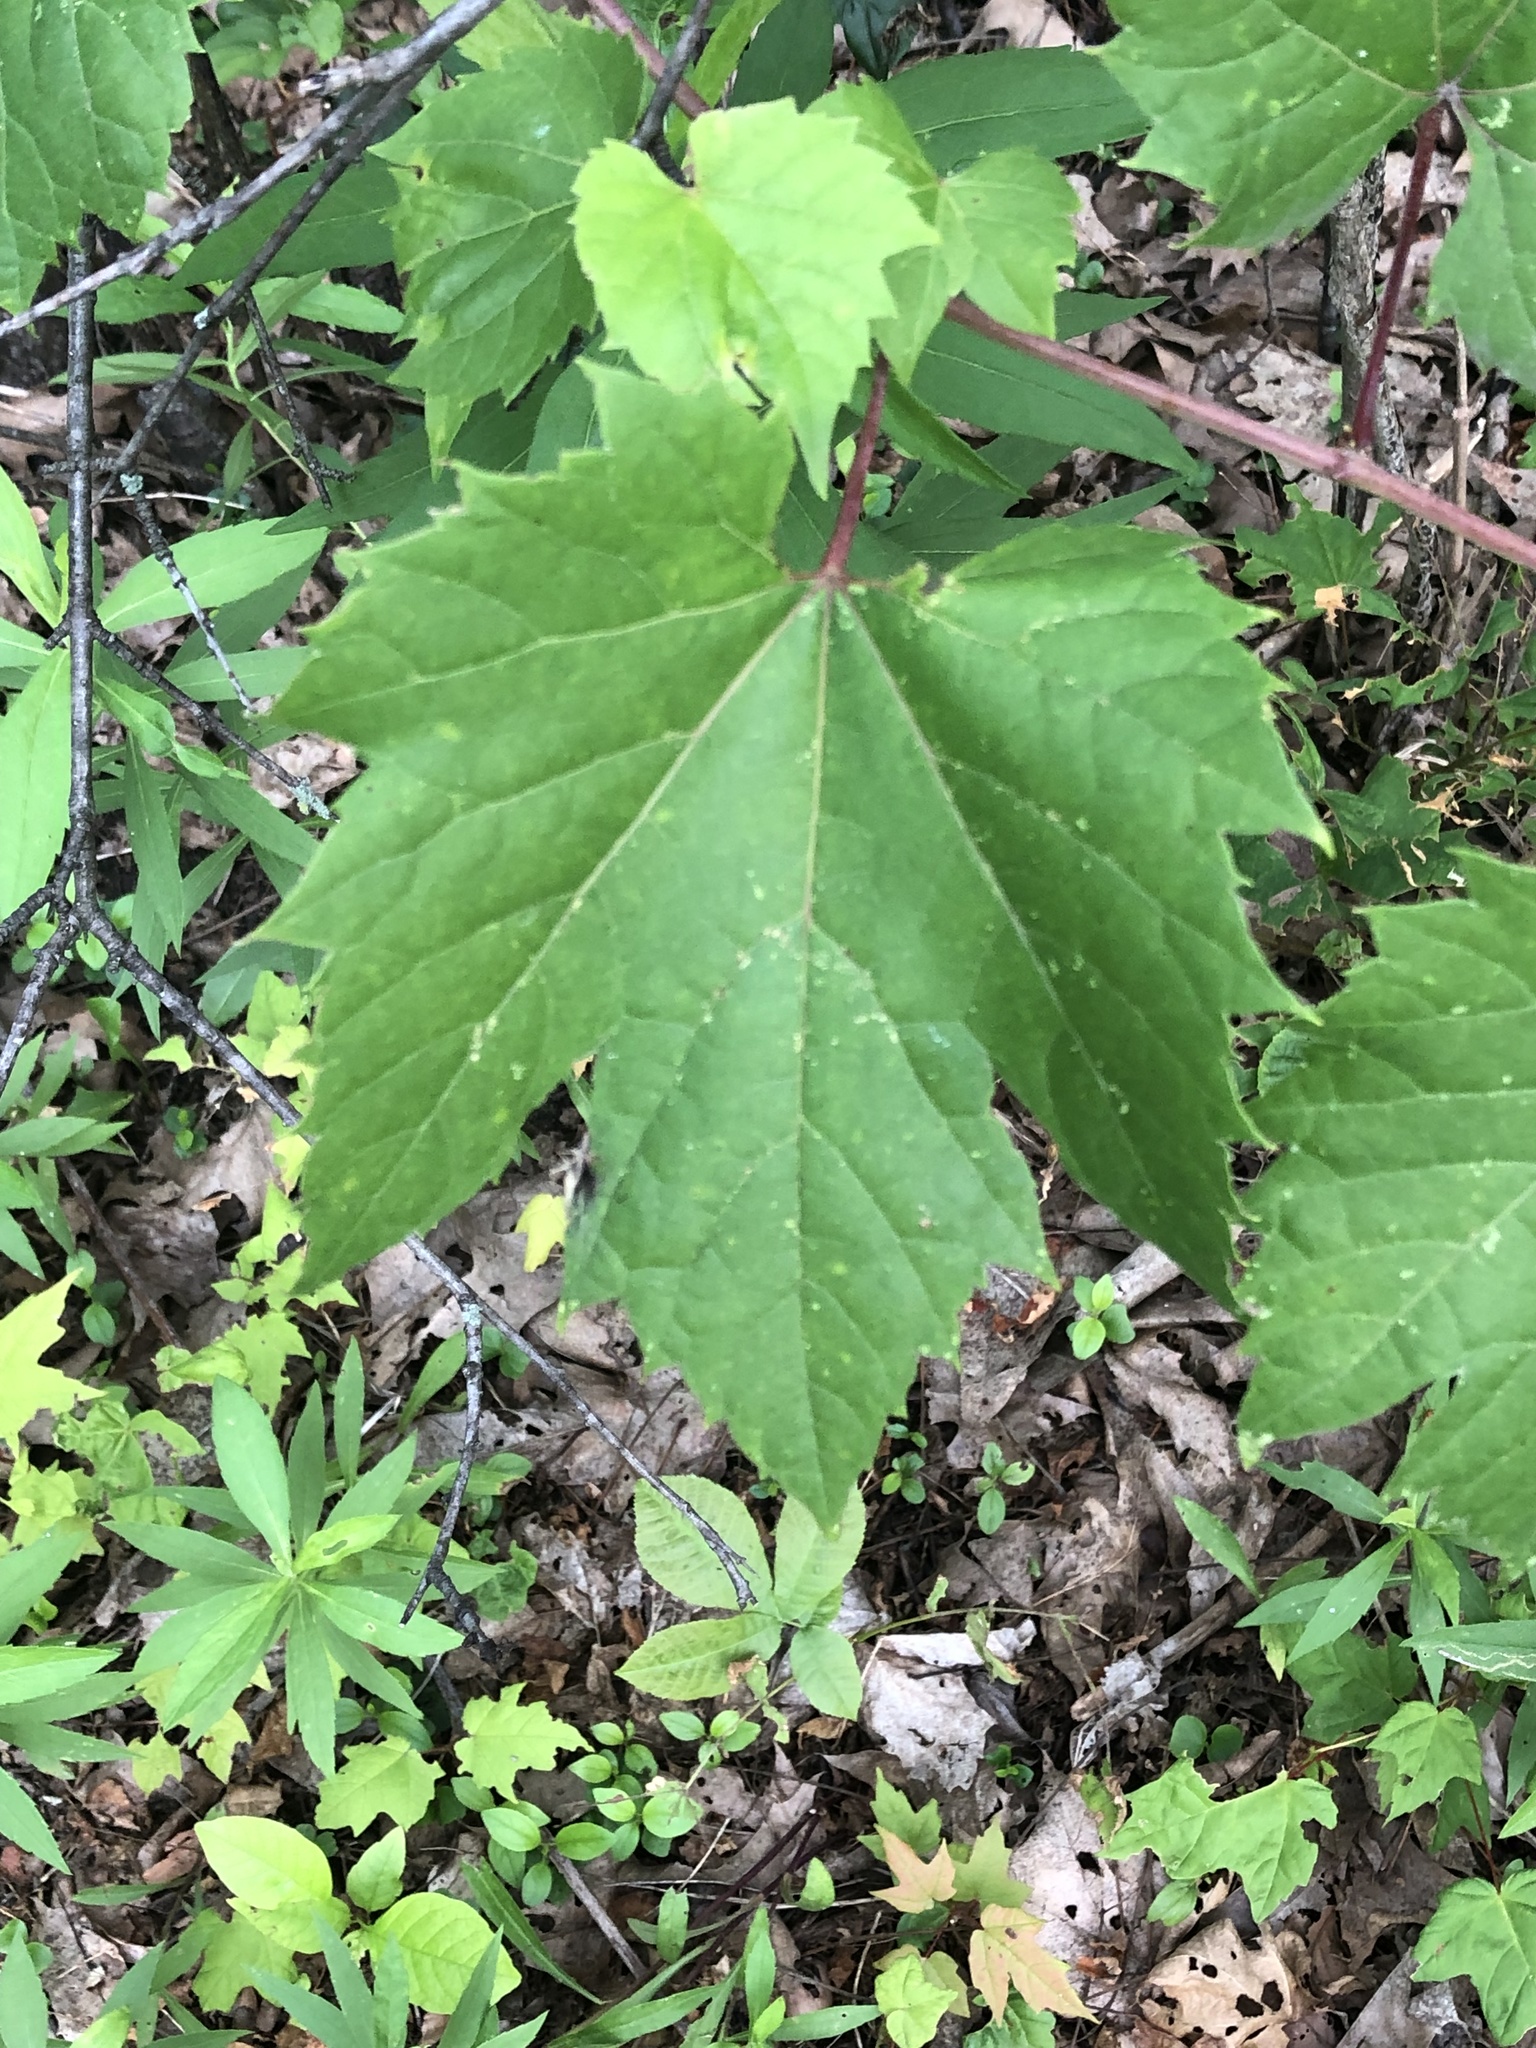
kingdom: Plantae
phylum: Tracheophyta
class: Magnoliopsida
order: Vitales
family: Vitaceae
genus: Vitis
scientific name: Vitis riparia
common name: Frost grape
